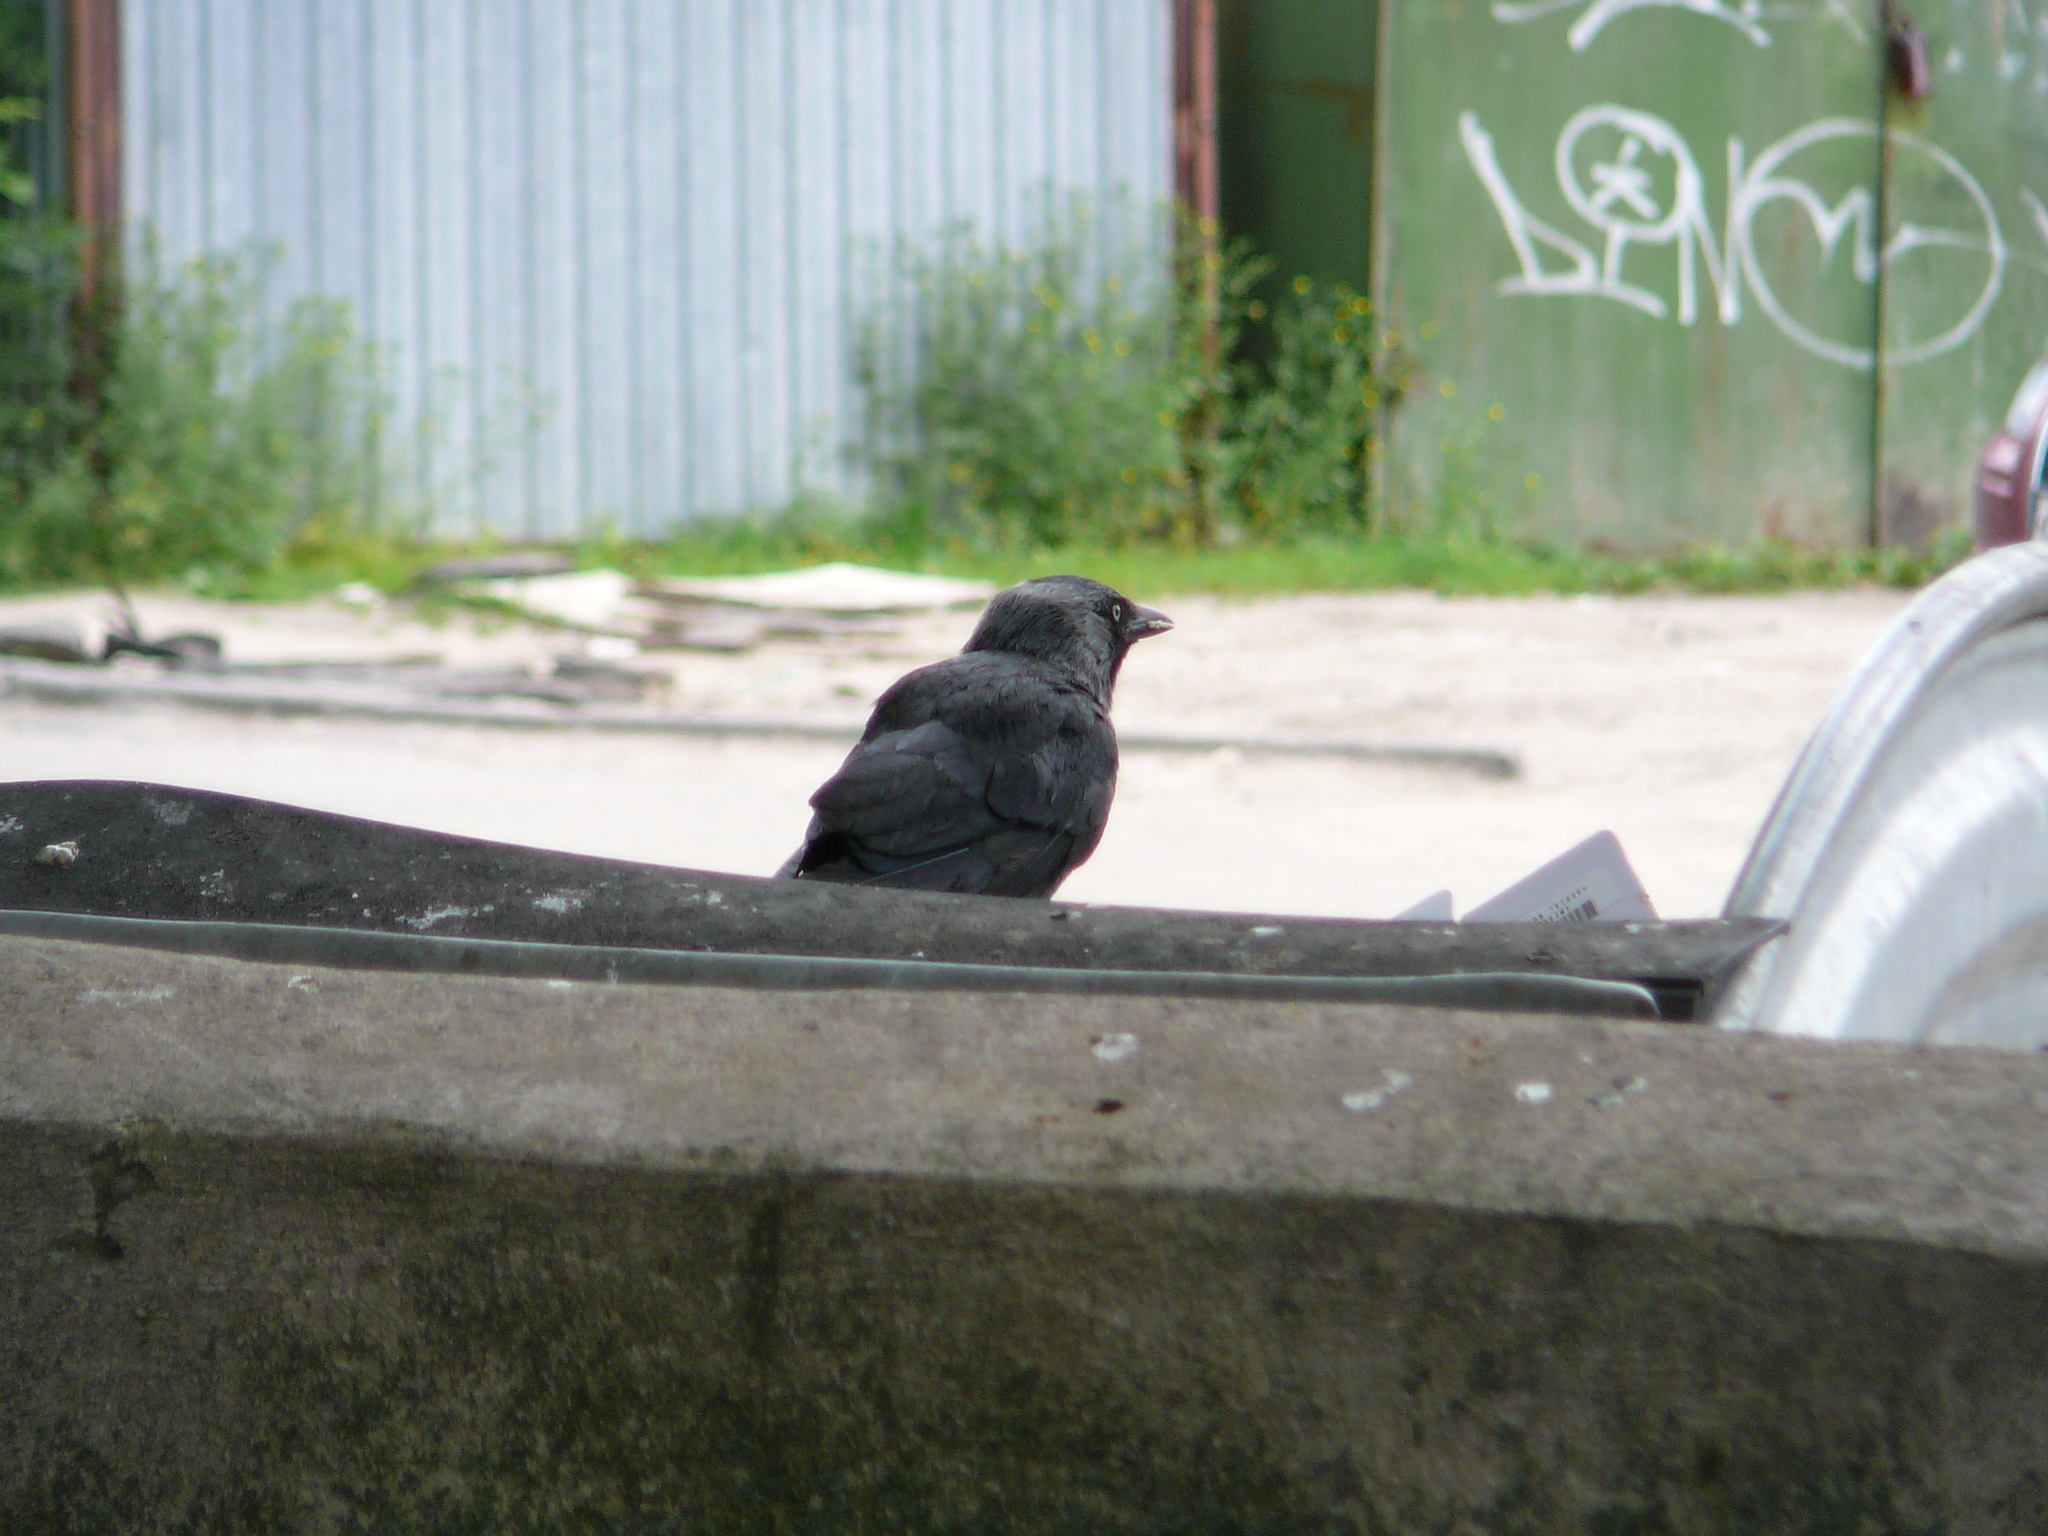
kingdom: Animalia
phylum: Chordata
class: Aves
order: Passeriformes
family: Corvidae
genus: Coloeus
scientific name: Coloeus monedula
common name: Western jackdaw
